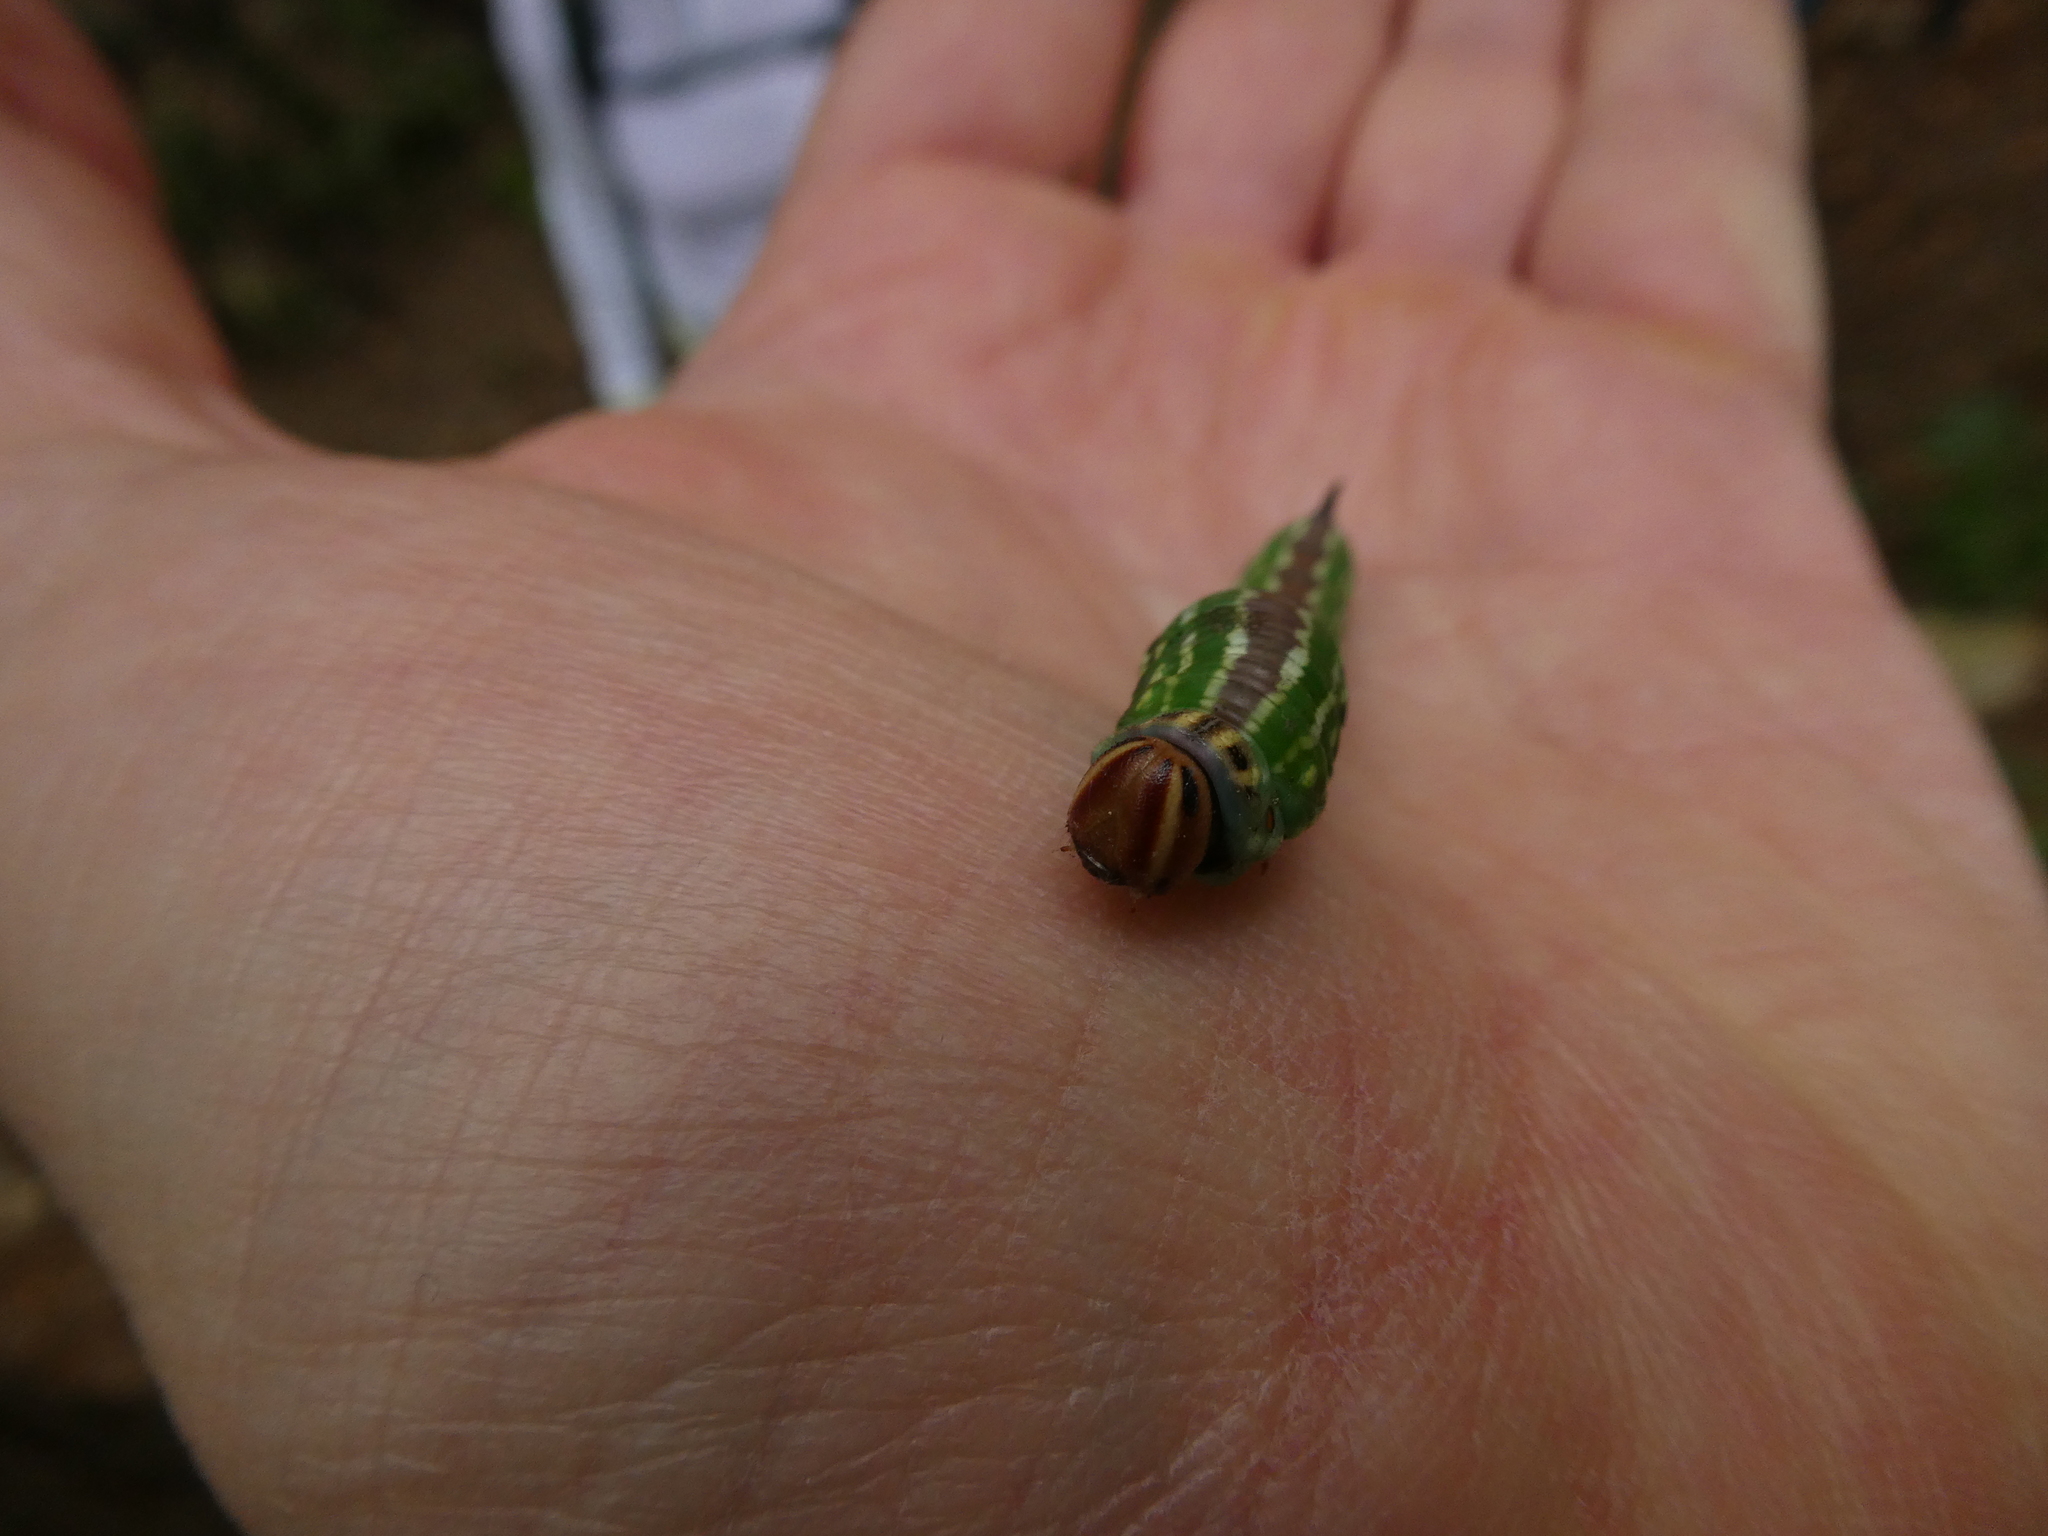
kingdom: Animalia
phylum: Arthropoda
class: Insecta
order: Lepidoptera
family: Sphingidae
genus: Sphinx
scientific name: Sphinx pinastri
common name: Pine hawk-moth
